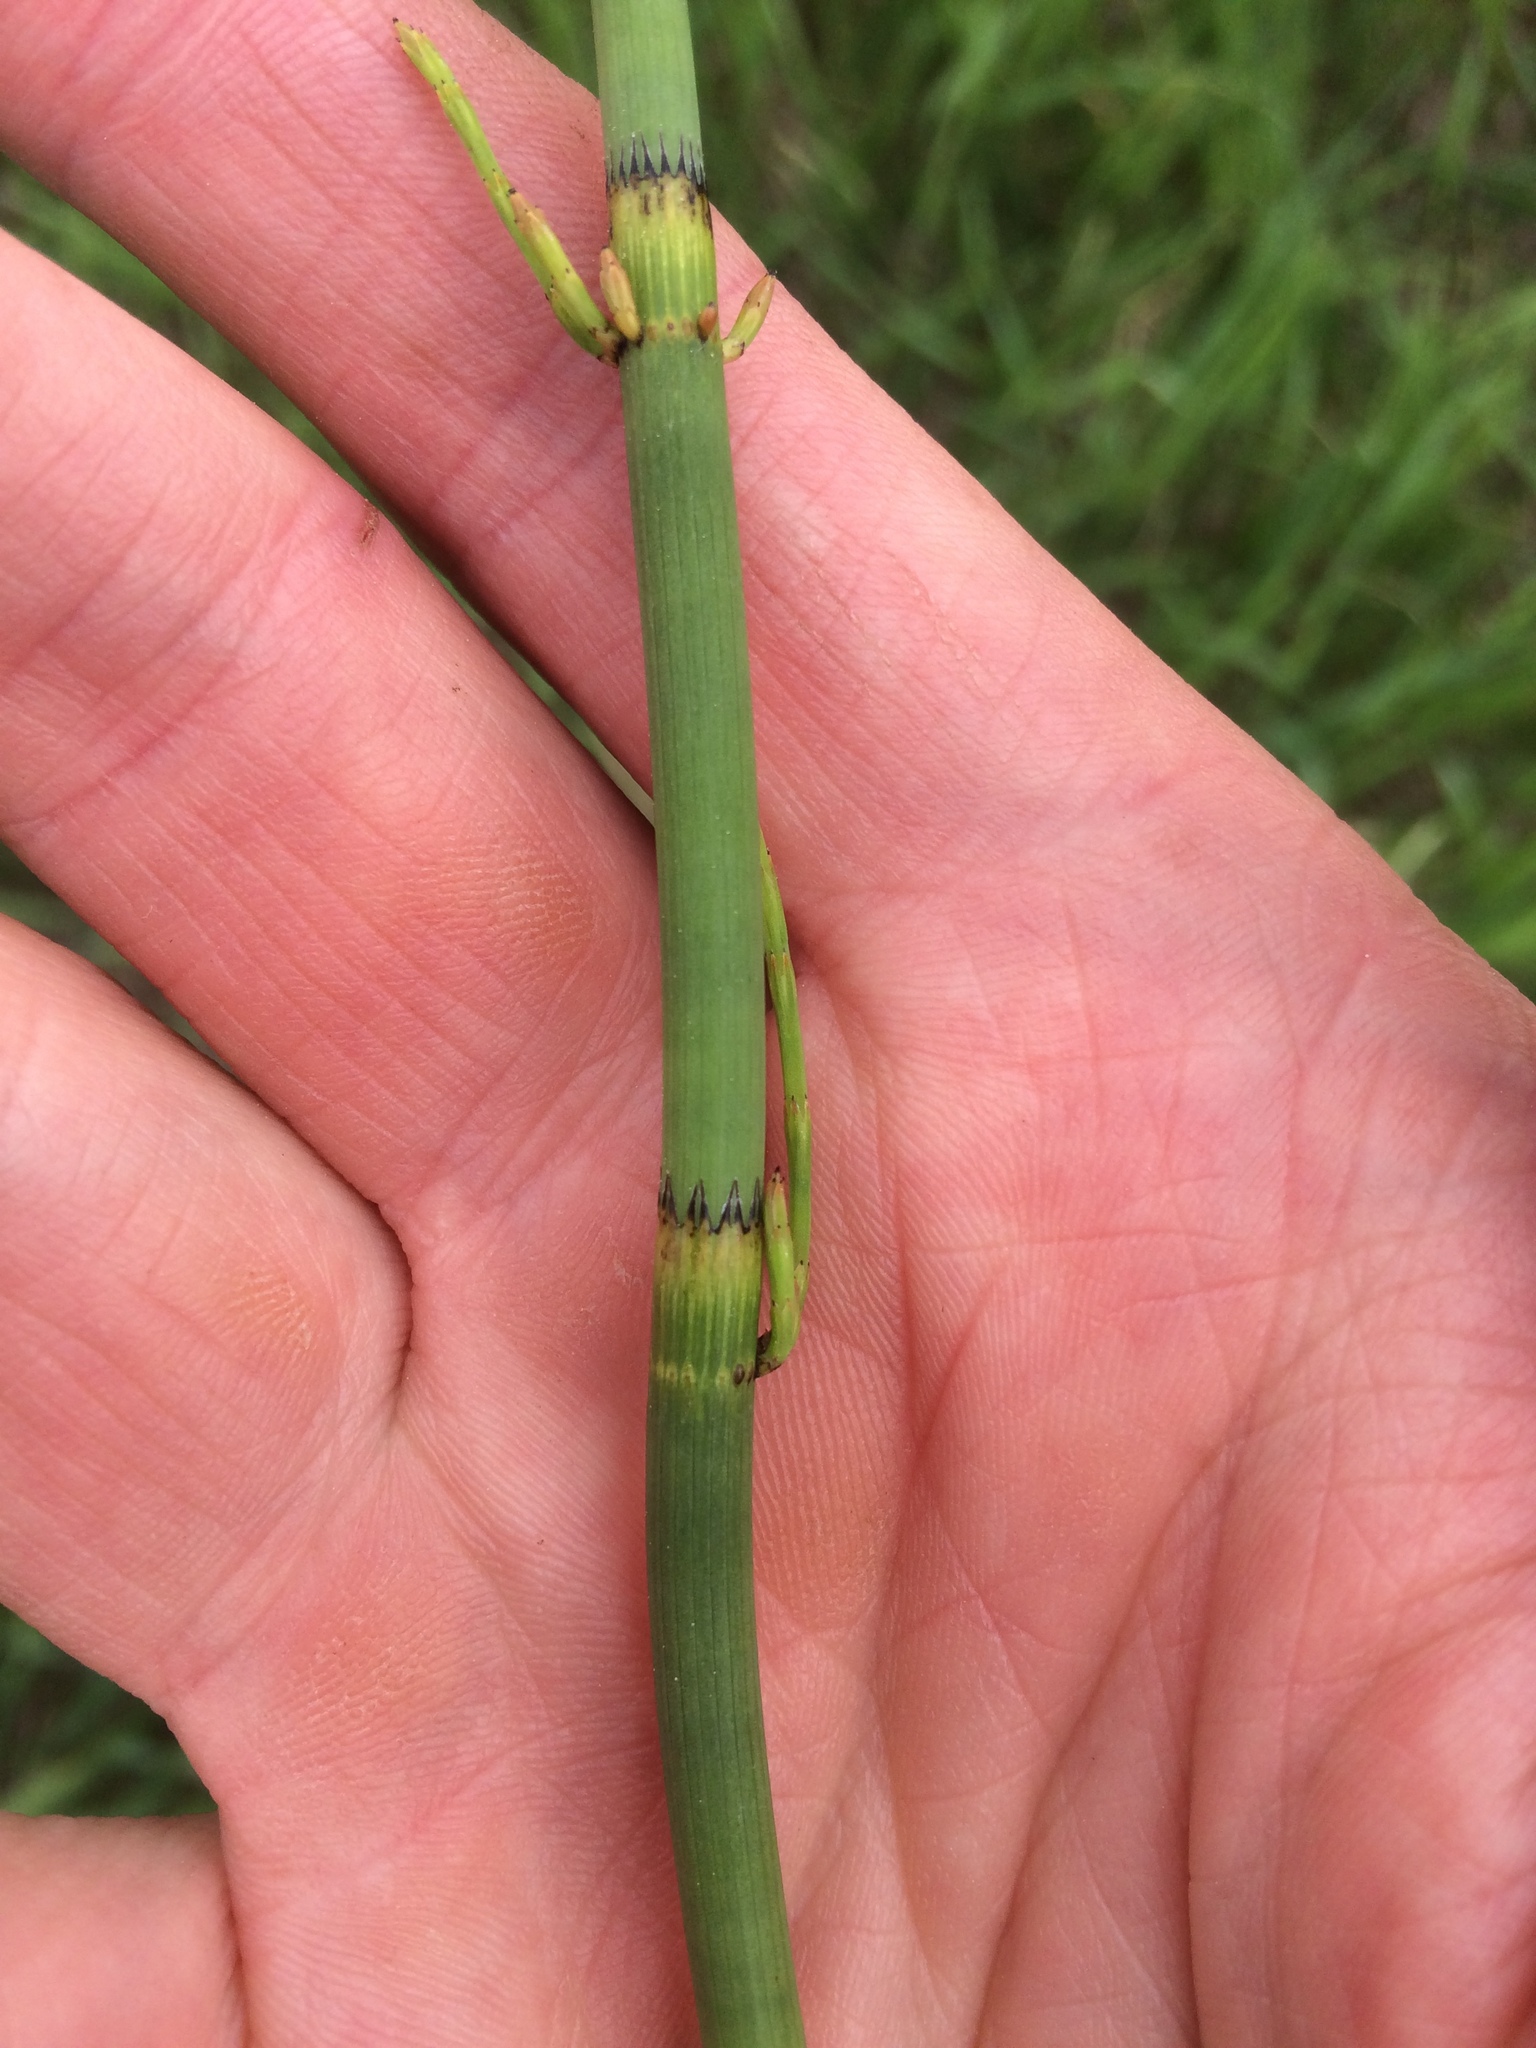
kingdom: Plantae
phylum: Tracheophyta
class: Polypodiopsida
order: Equisetales
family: Equisetaceae
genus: Equisetum
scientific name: Equisetum fluviatile
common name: Water horsetail
